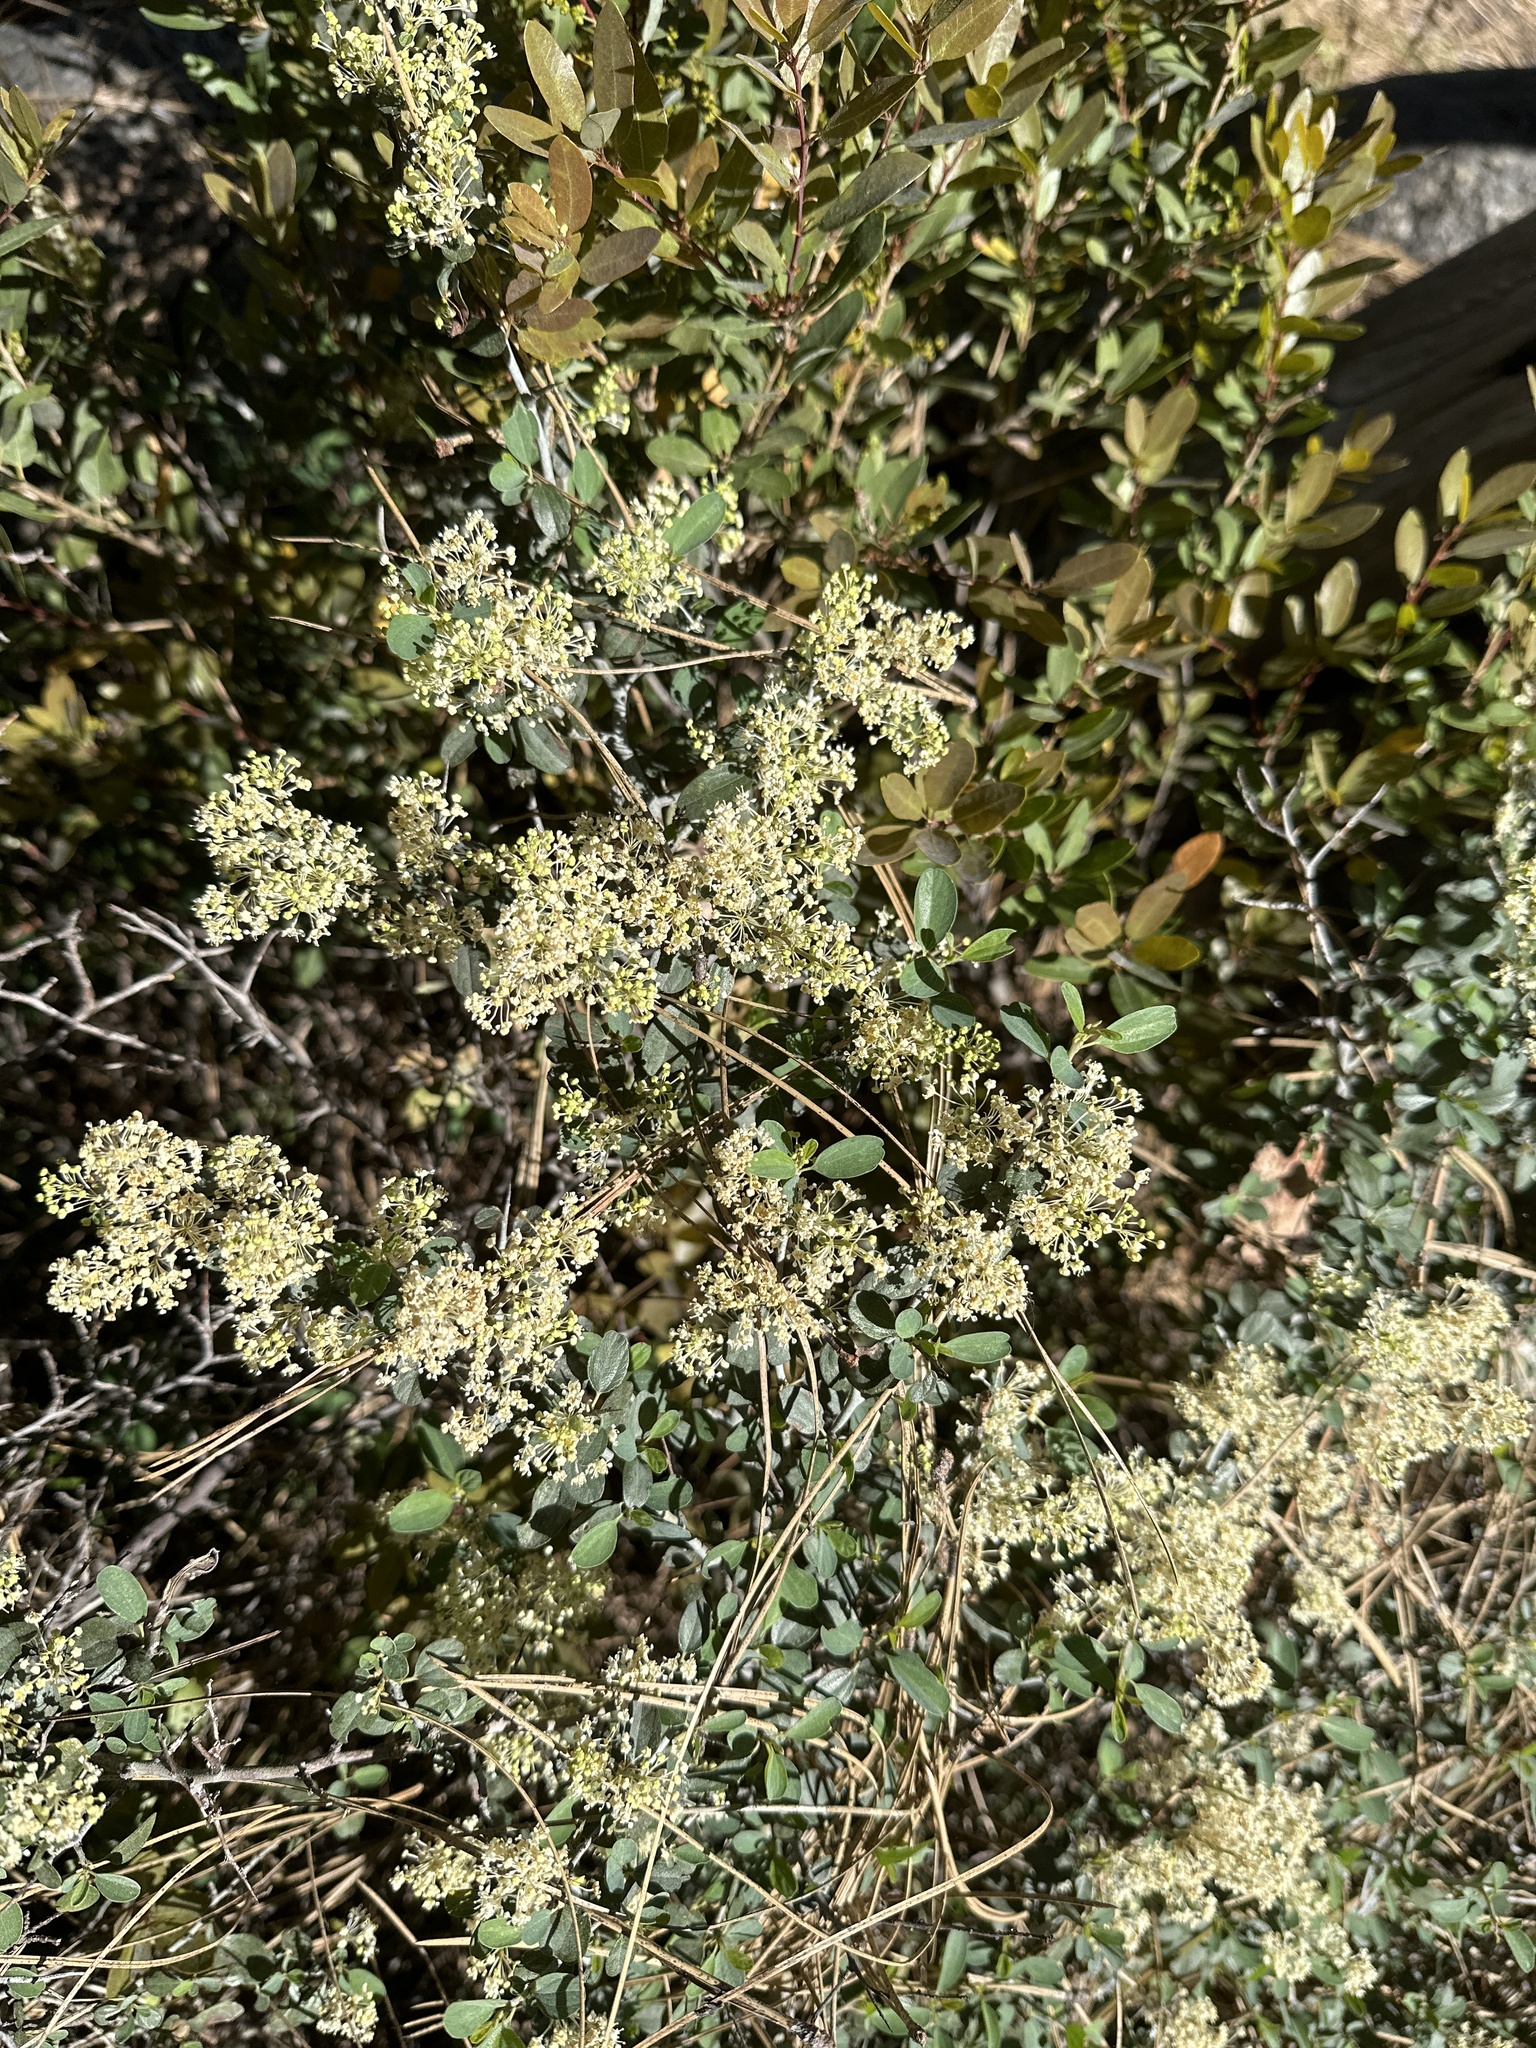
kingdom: Plantae
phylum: Tracheophyta
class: Magnoliopsida
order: Rosales
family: Rhamnaceae
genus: Ceanothus
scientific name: Ceanothus cordulatus
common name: Mountain whitethorn
